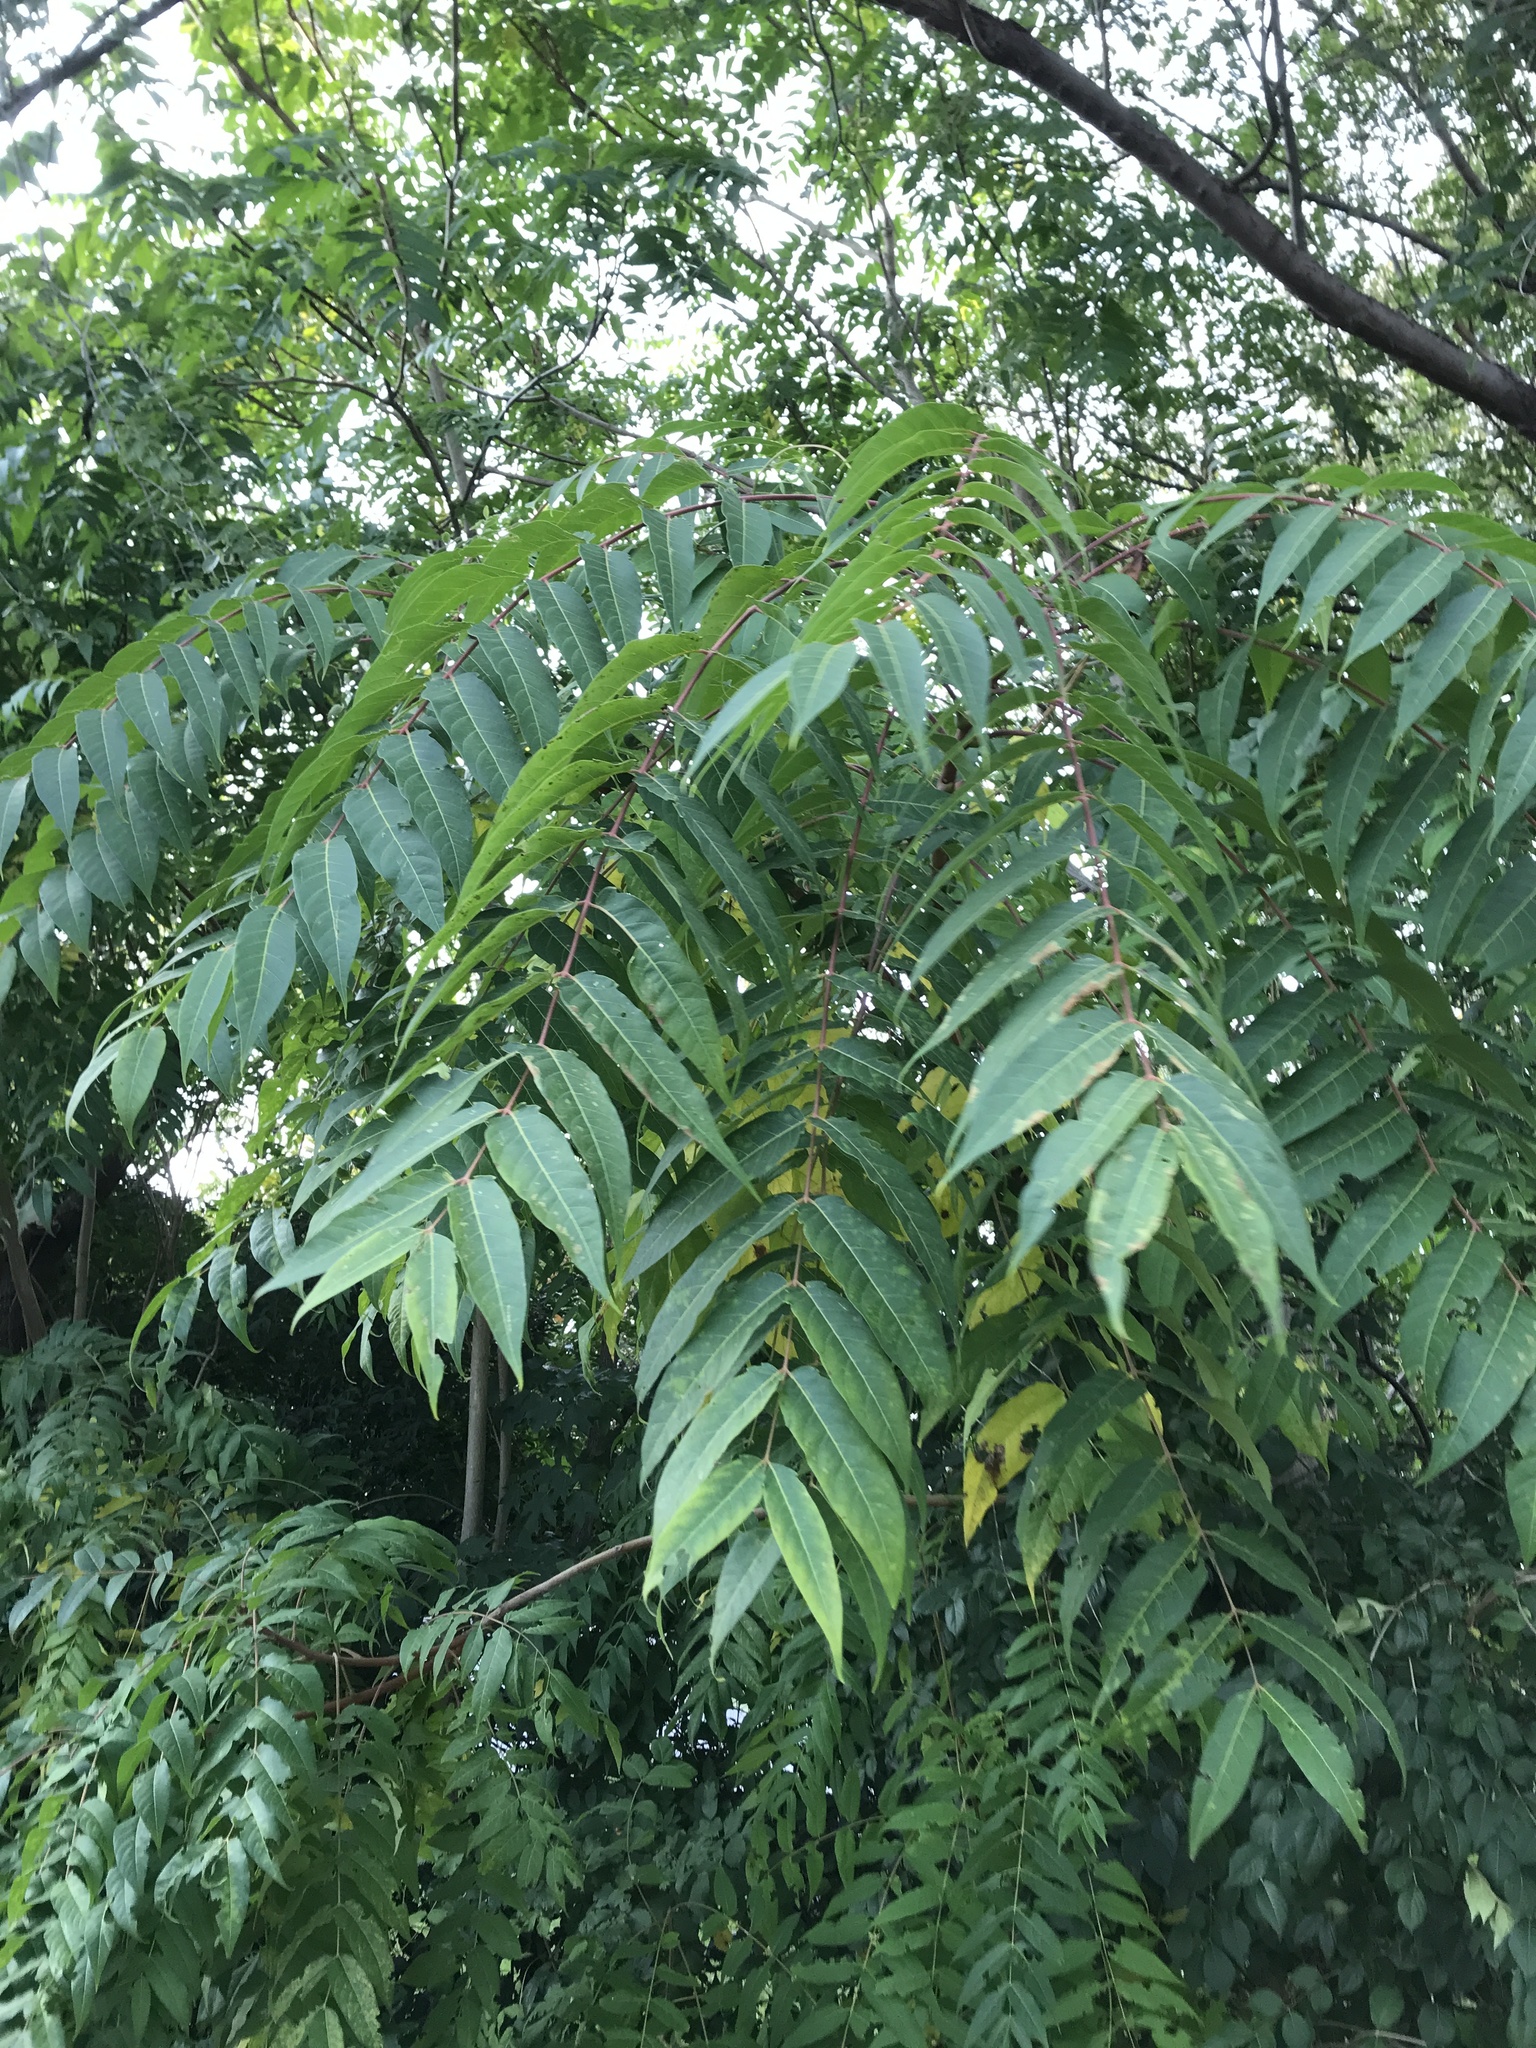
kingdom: Plantae
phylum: Tracheophyta
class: Magnoliopsida
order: Sapindales
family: Simaroubaceae
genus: Ailanthus
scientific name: Ailanthus altissima
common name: Tree-of-heaven
